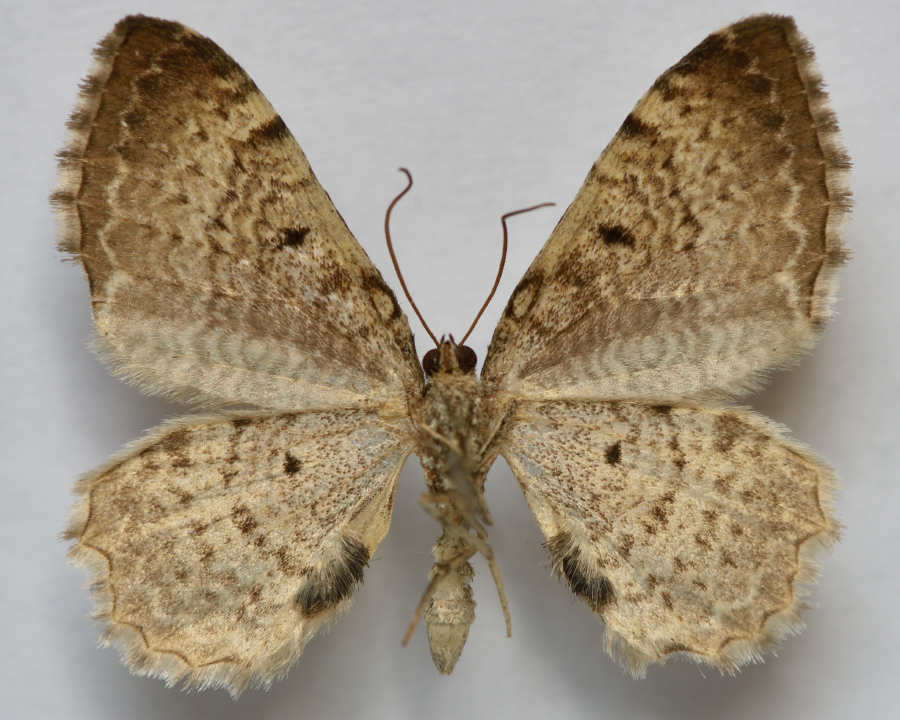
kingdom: Animalia
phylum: Arthropoda
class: Insecta
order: Lepidoptera
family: Geometridae
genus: Rheumaptera
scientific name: Rheumaptera undulata
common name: Scallop shell
